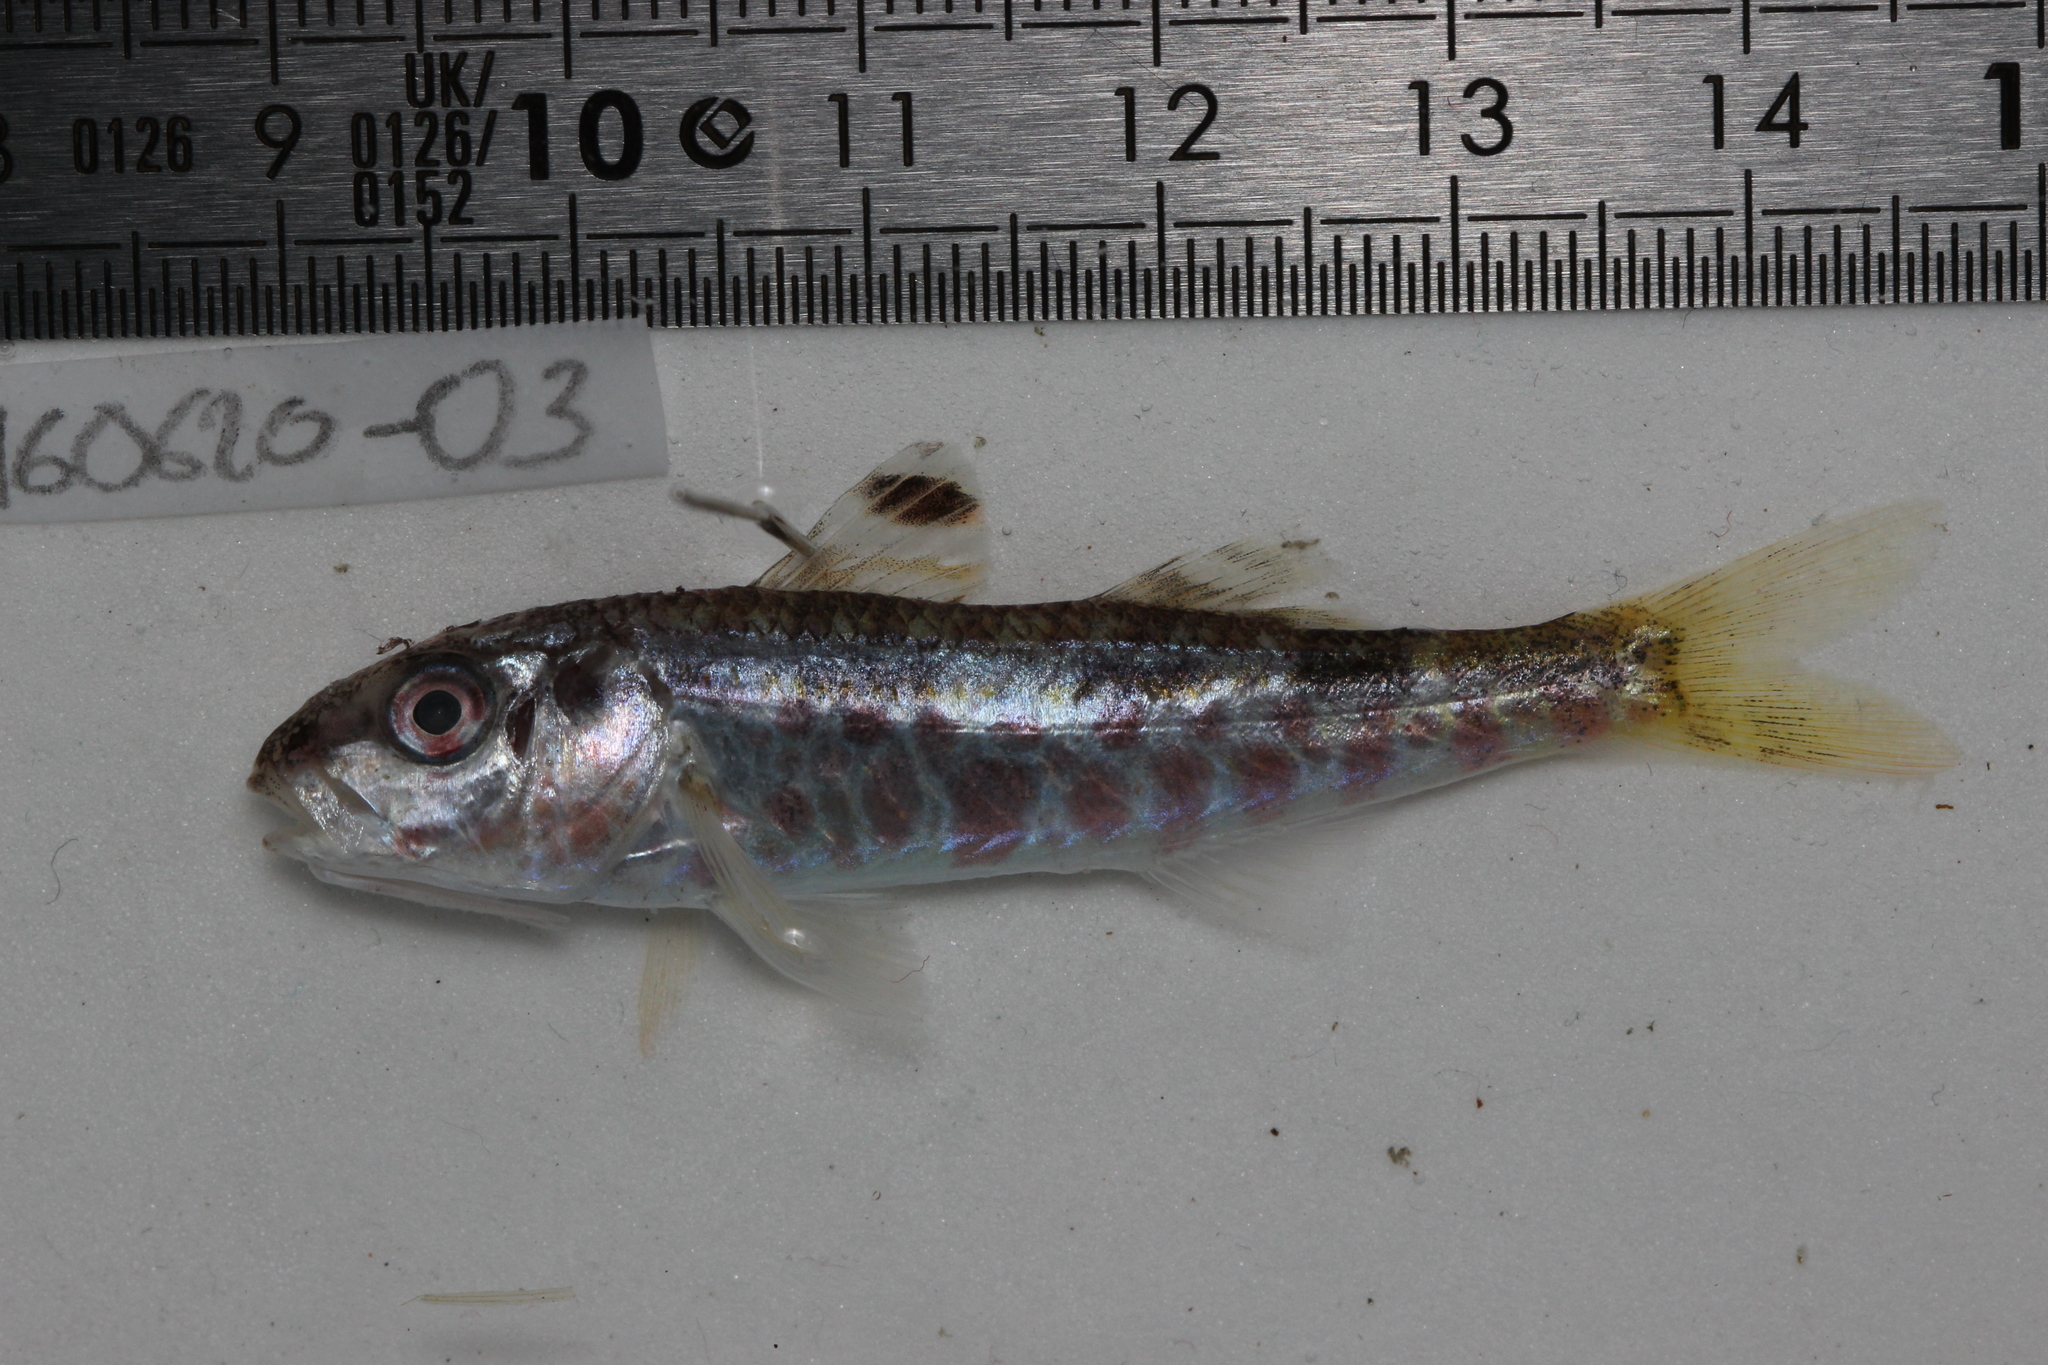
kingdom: Animalia
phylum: Chordata
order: Perciformes
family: Mullidae
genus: Mullus
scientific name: Mullus surmuletus
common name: Red mullet
